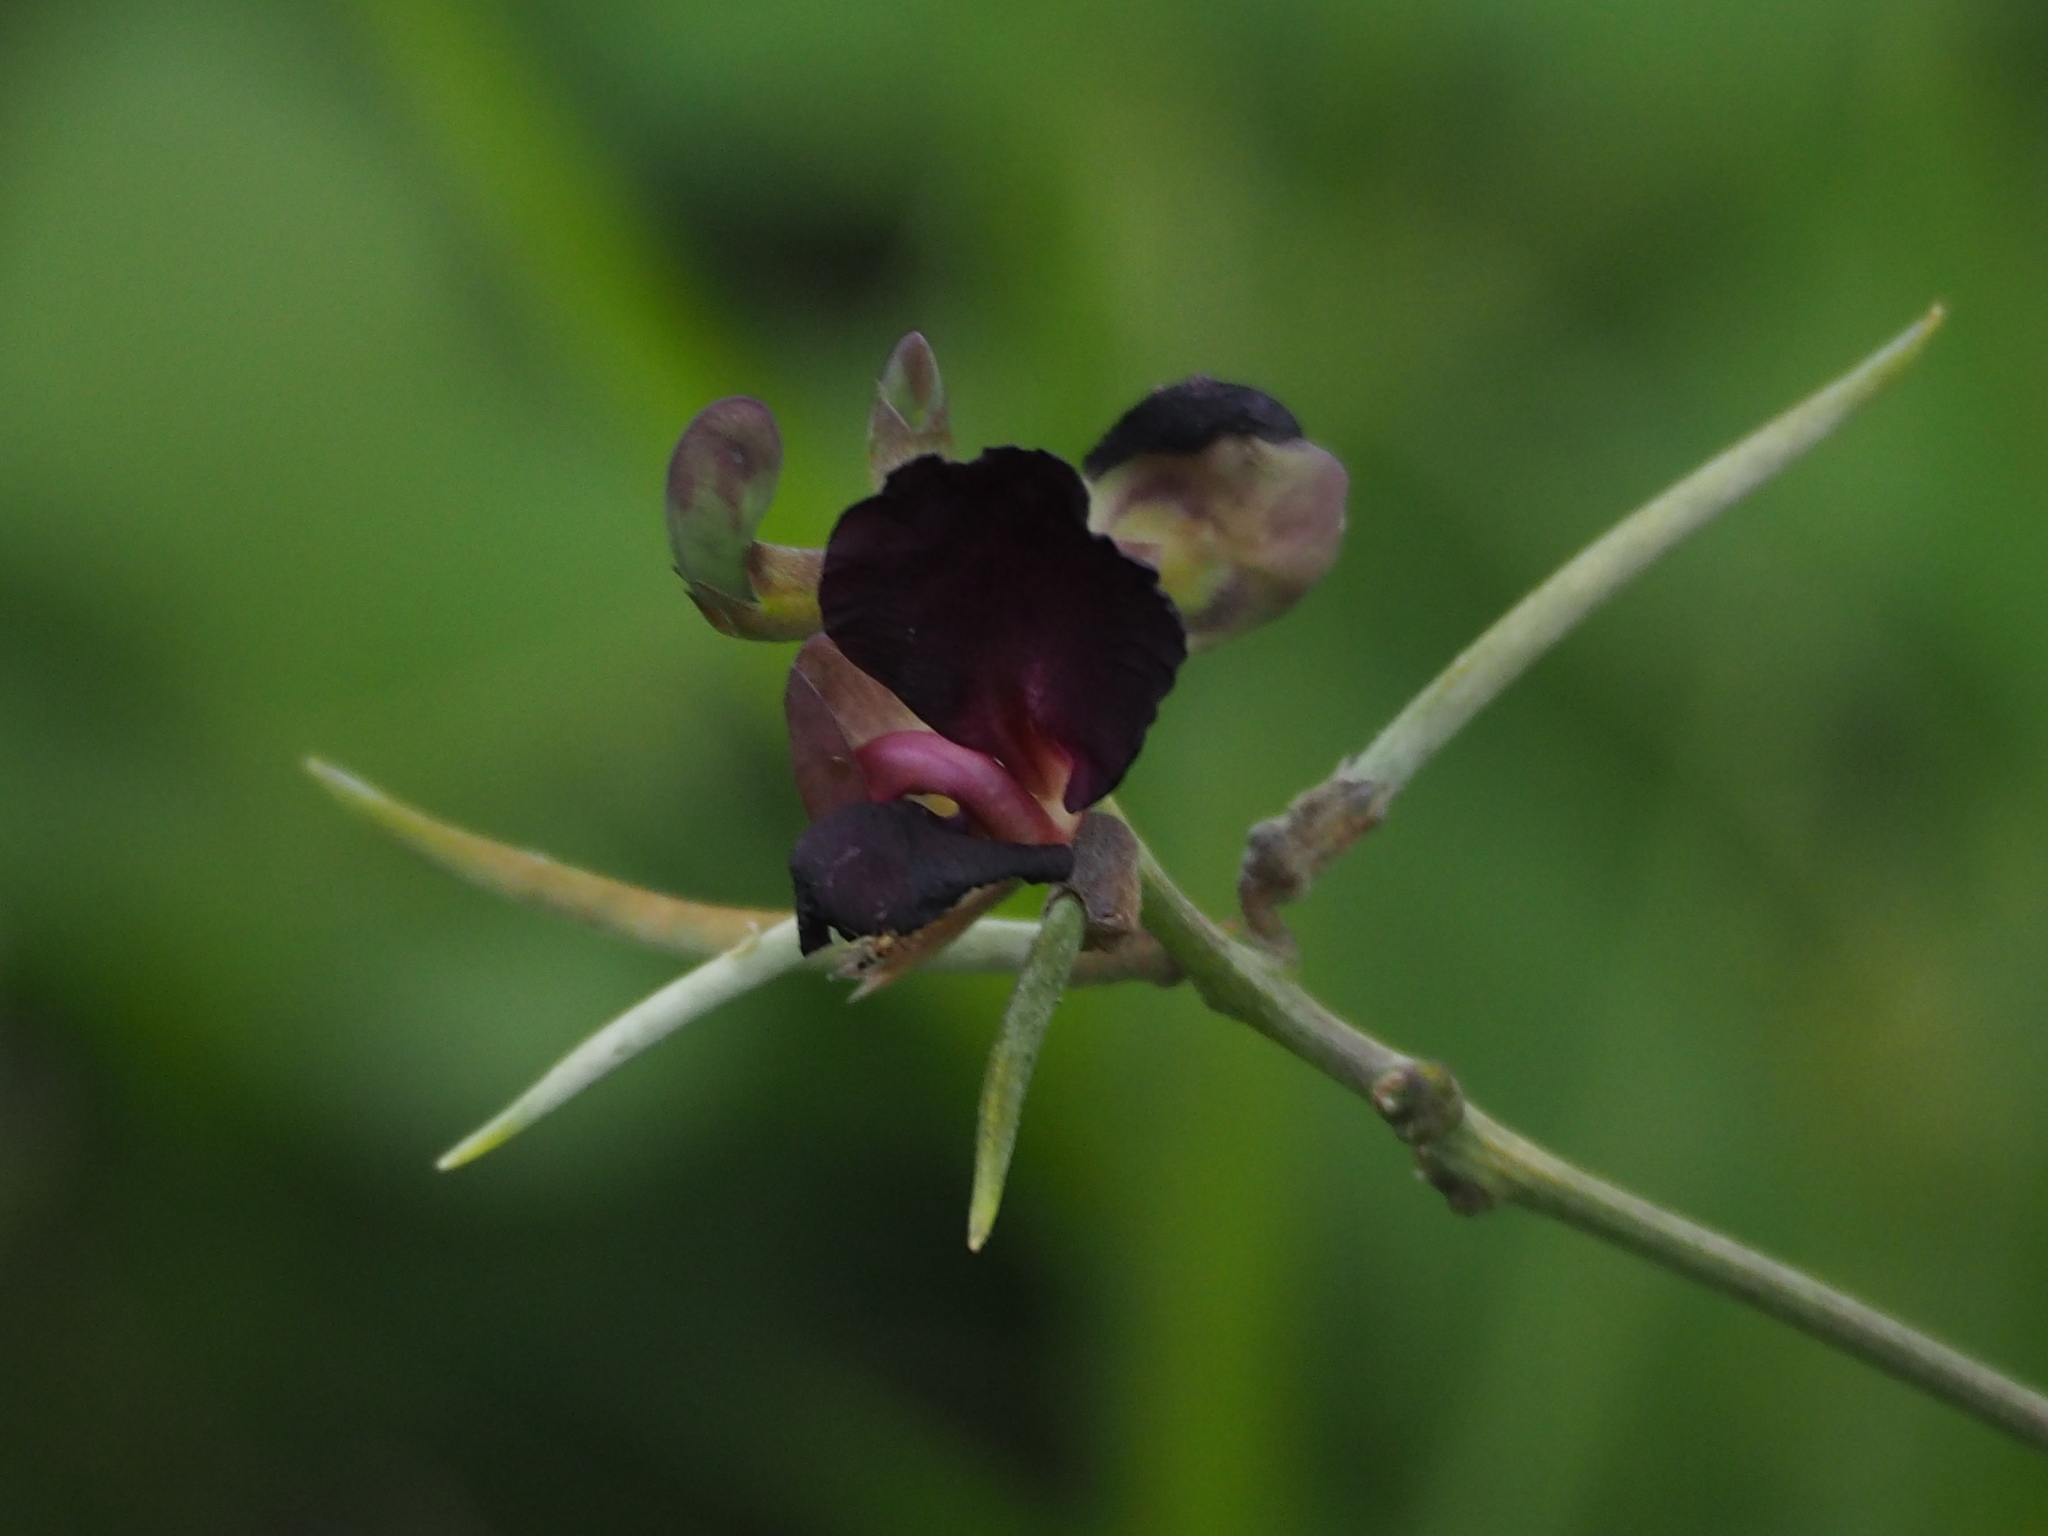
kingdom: Plantae
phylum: Tracheophyta
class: Magnoliopsida
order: Fabales
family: Fabaceae
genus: Macroptilium
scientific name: Macroptilium atropurpureum
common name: Purple bushbean
